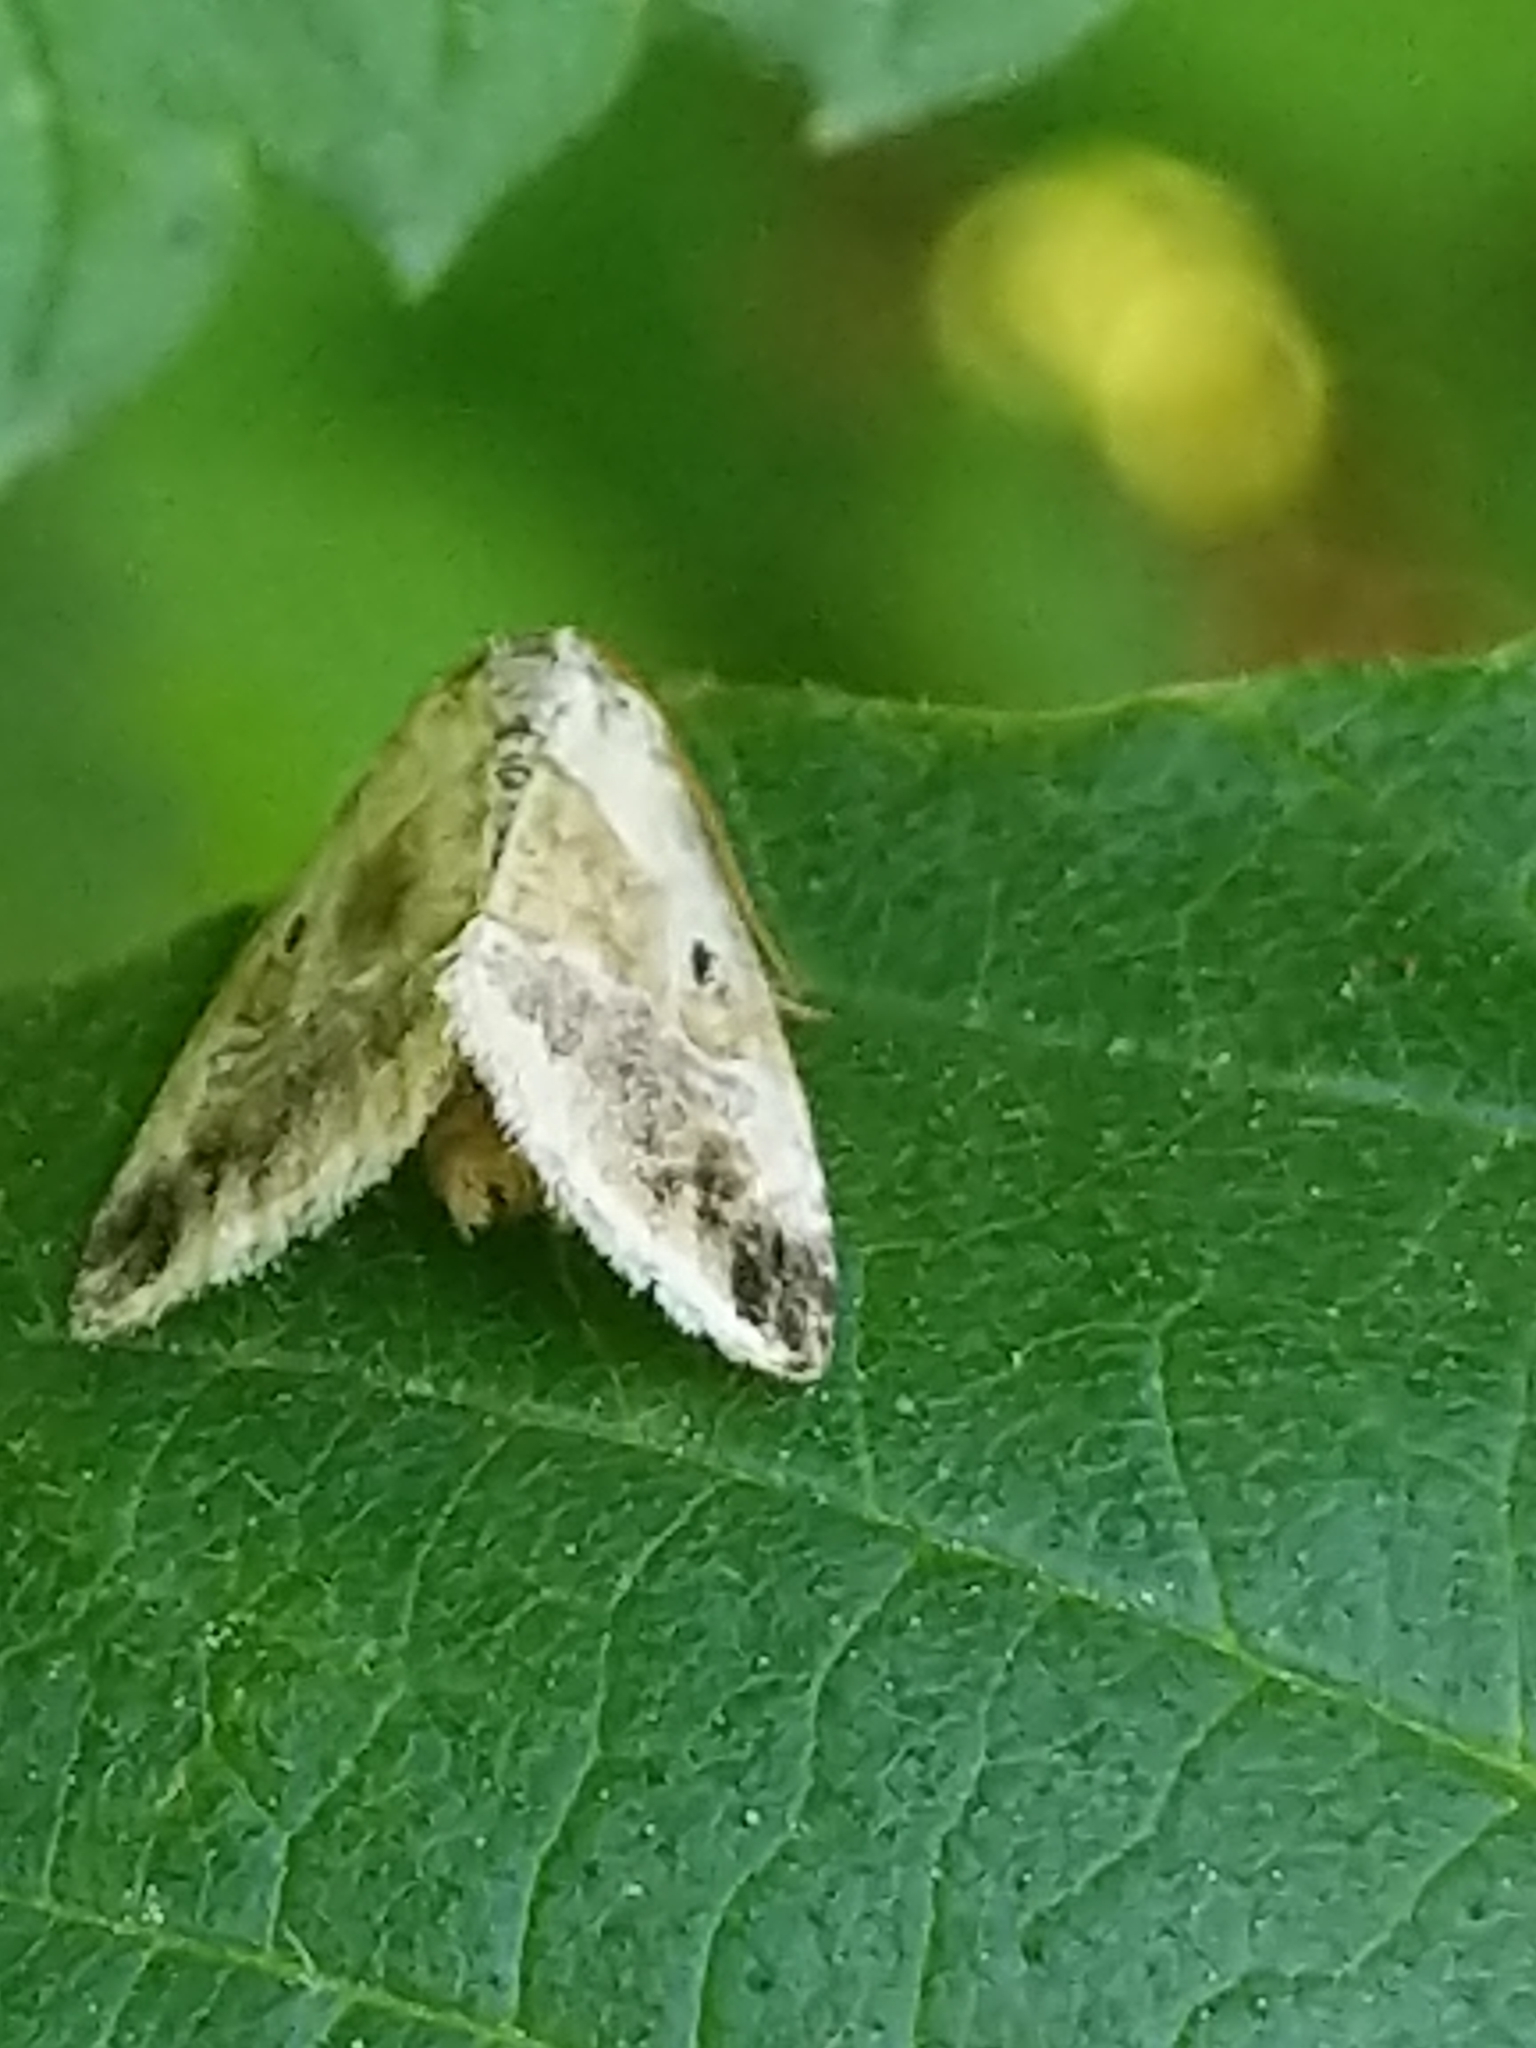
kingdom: Animalia
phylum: Arthropoda
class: Insecta
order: Lepidoptera
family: Noctuidae
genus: Maliattha
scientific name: Maliattha synochitis
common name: Black-dotted glyph
